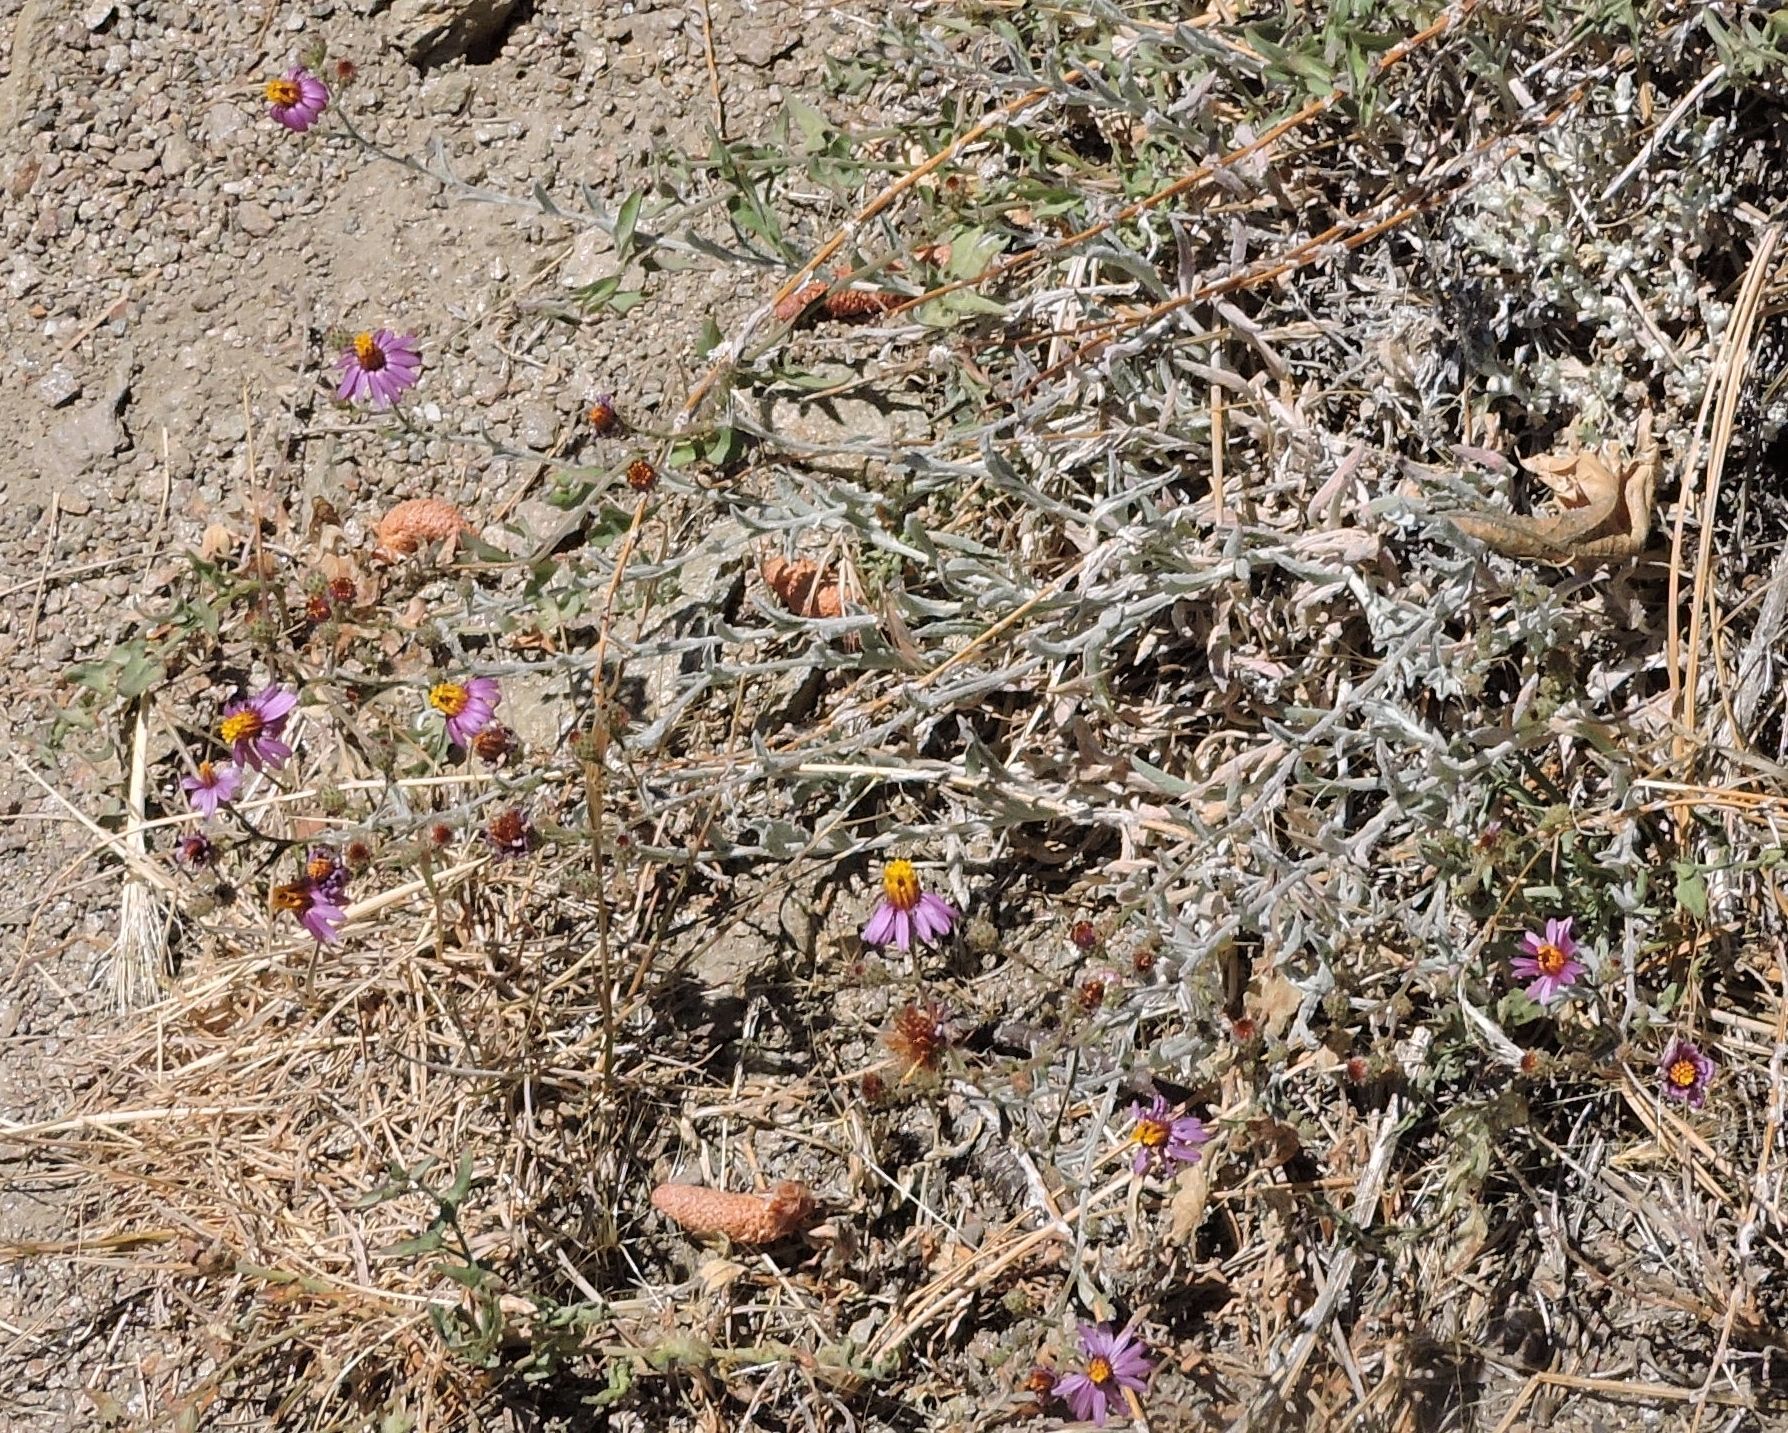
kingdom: Plantae
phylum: Tracheophyta
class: Magnoliopsida
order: Asterales
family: Asteraceae
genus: Corethrogyne
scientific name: Corethrogyne filaginifolia
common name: Sand-aster
